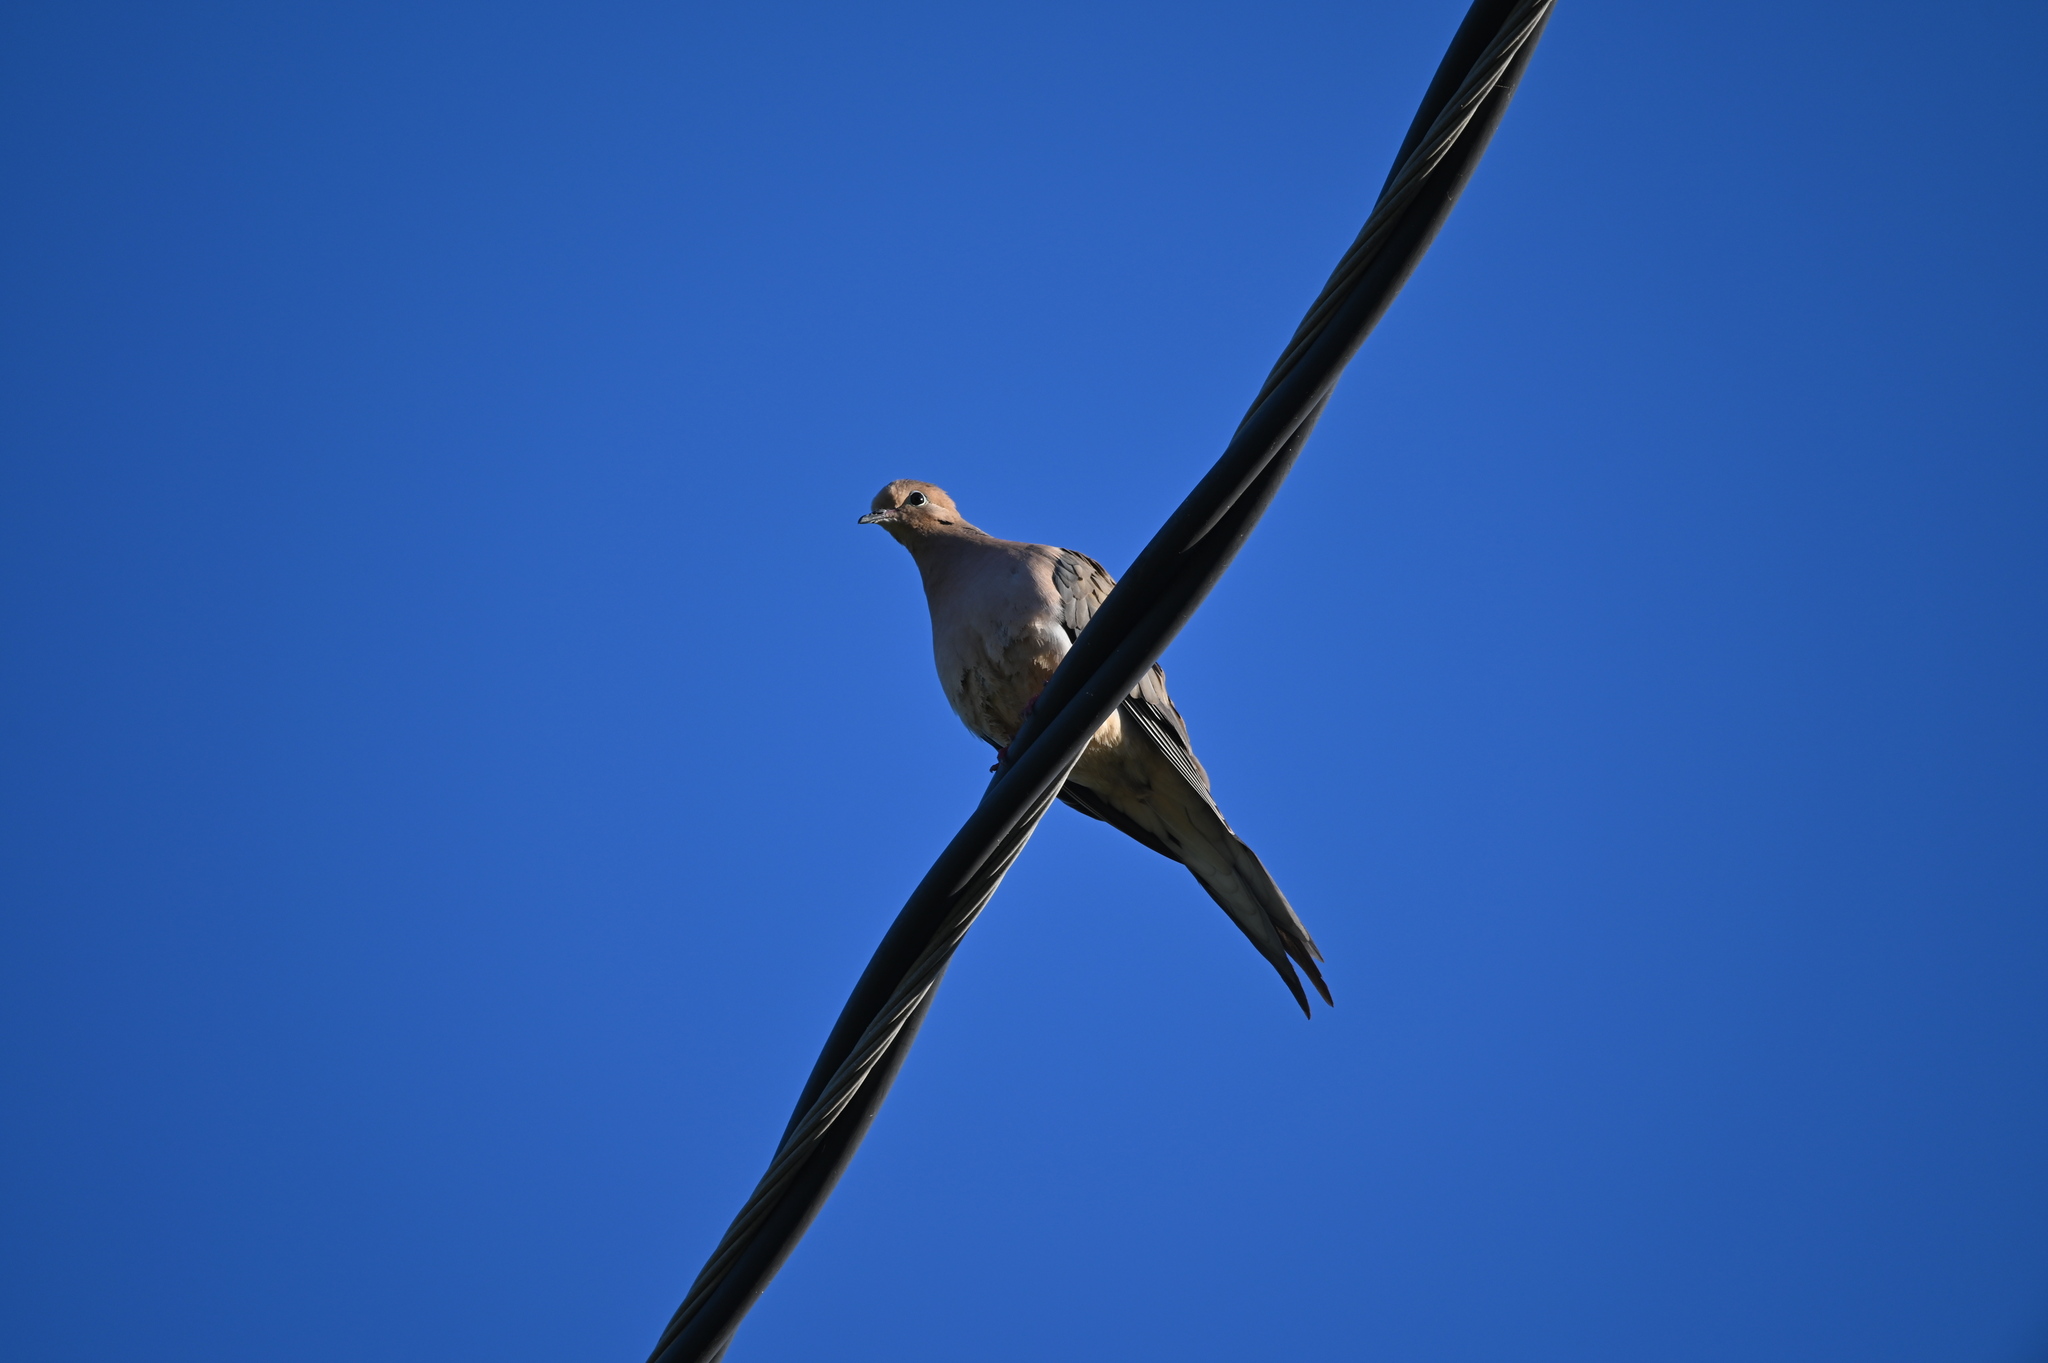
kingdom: Animalia
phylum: Chordata
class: Aves
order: Columbiformes
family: Columbidae
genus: Zenaida
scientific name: Zenaida macroura
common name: Mourning dove
